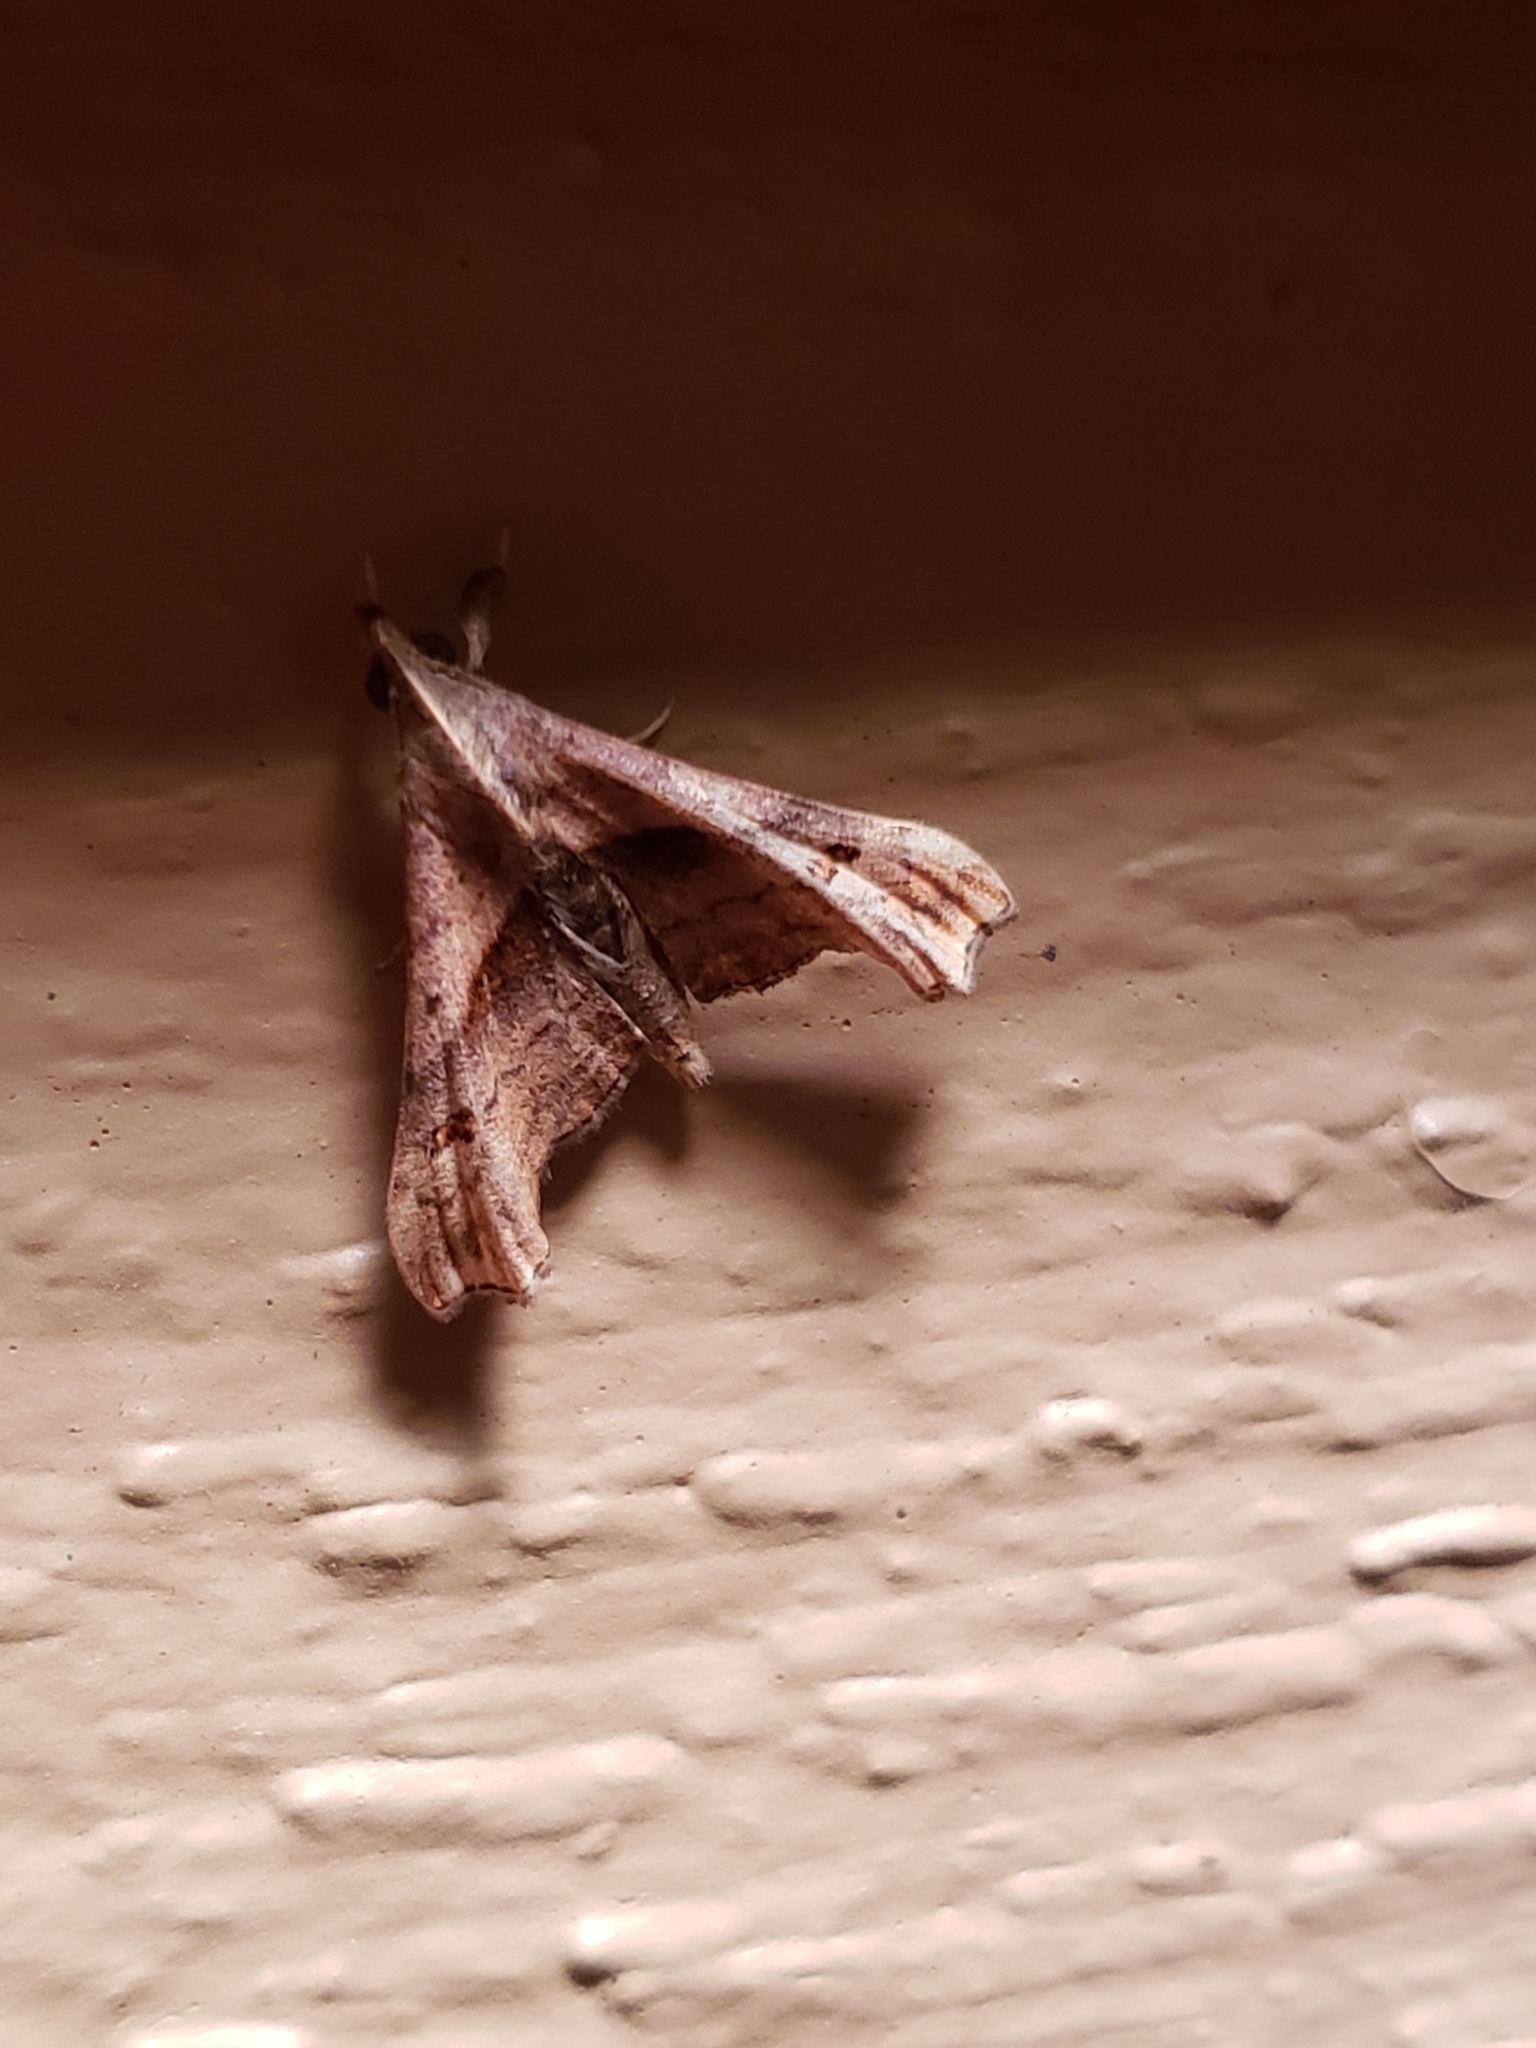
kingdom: Animalia
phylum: Arthropoda
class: Insecta
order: Lepidoptera
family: Erebidae
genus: Palthis
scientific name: Palthis angulalis
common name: Dark-spotted palthis moth
